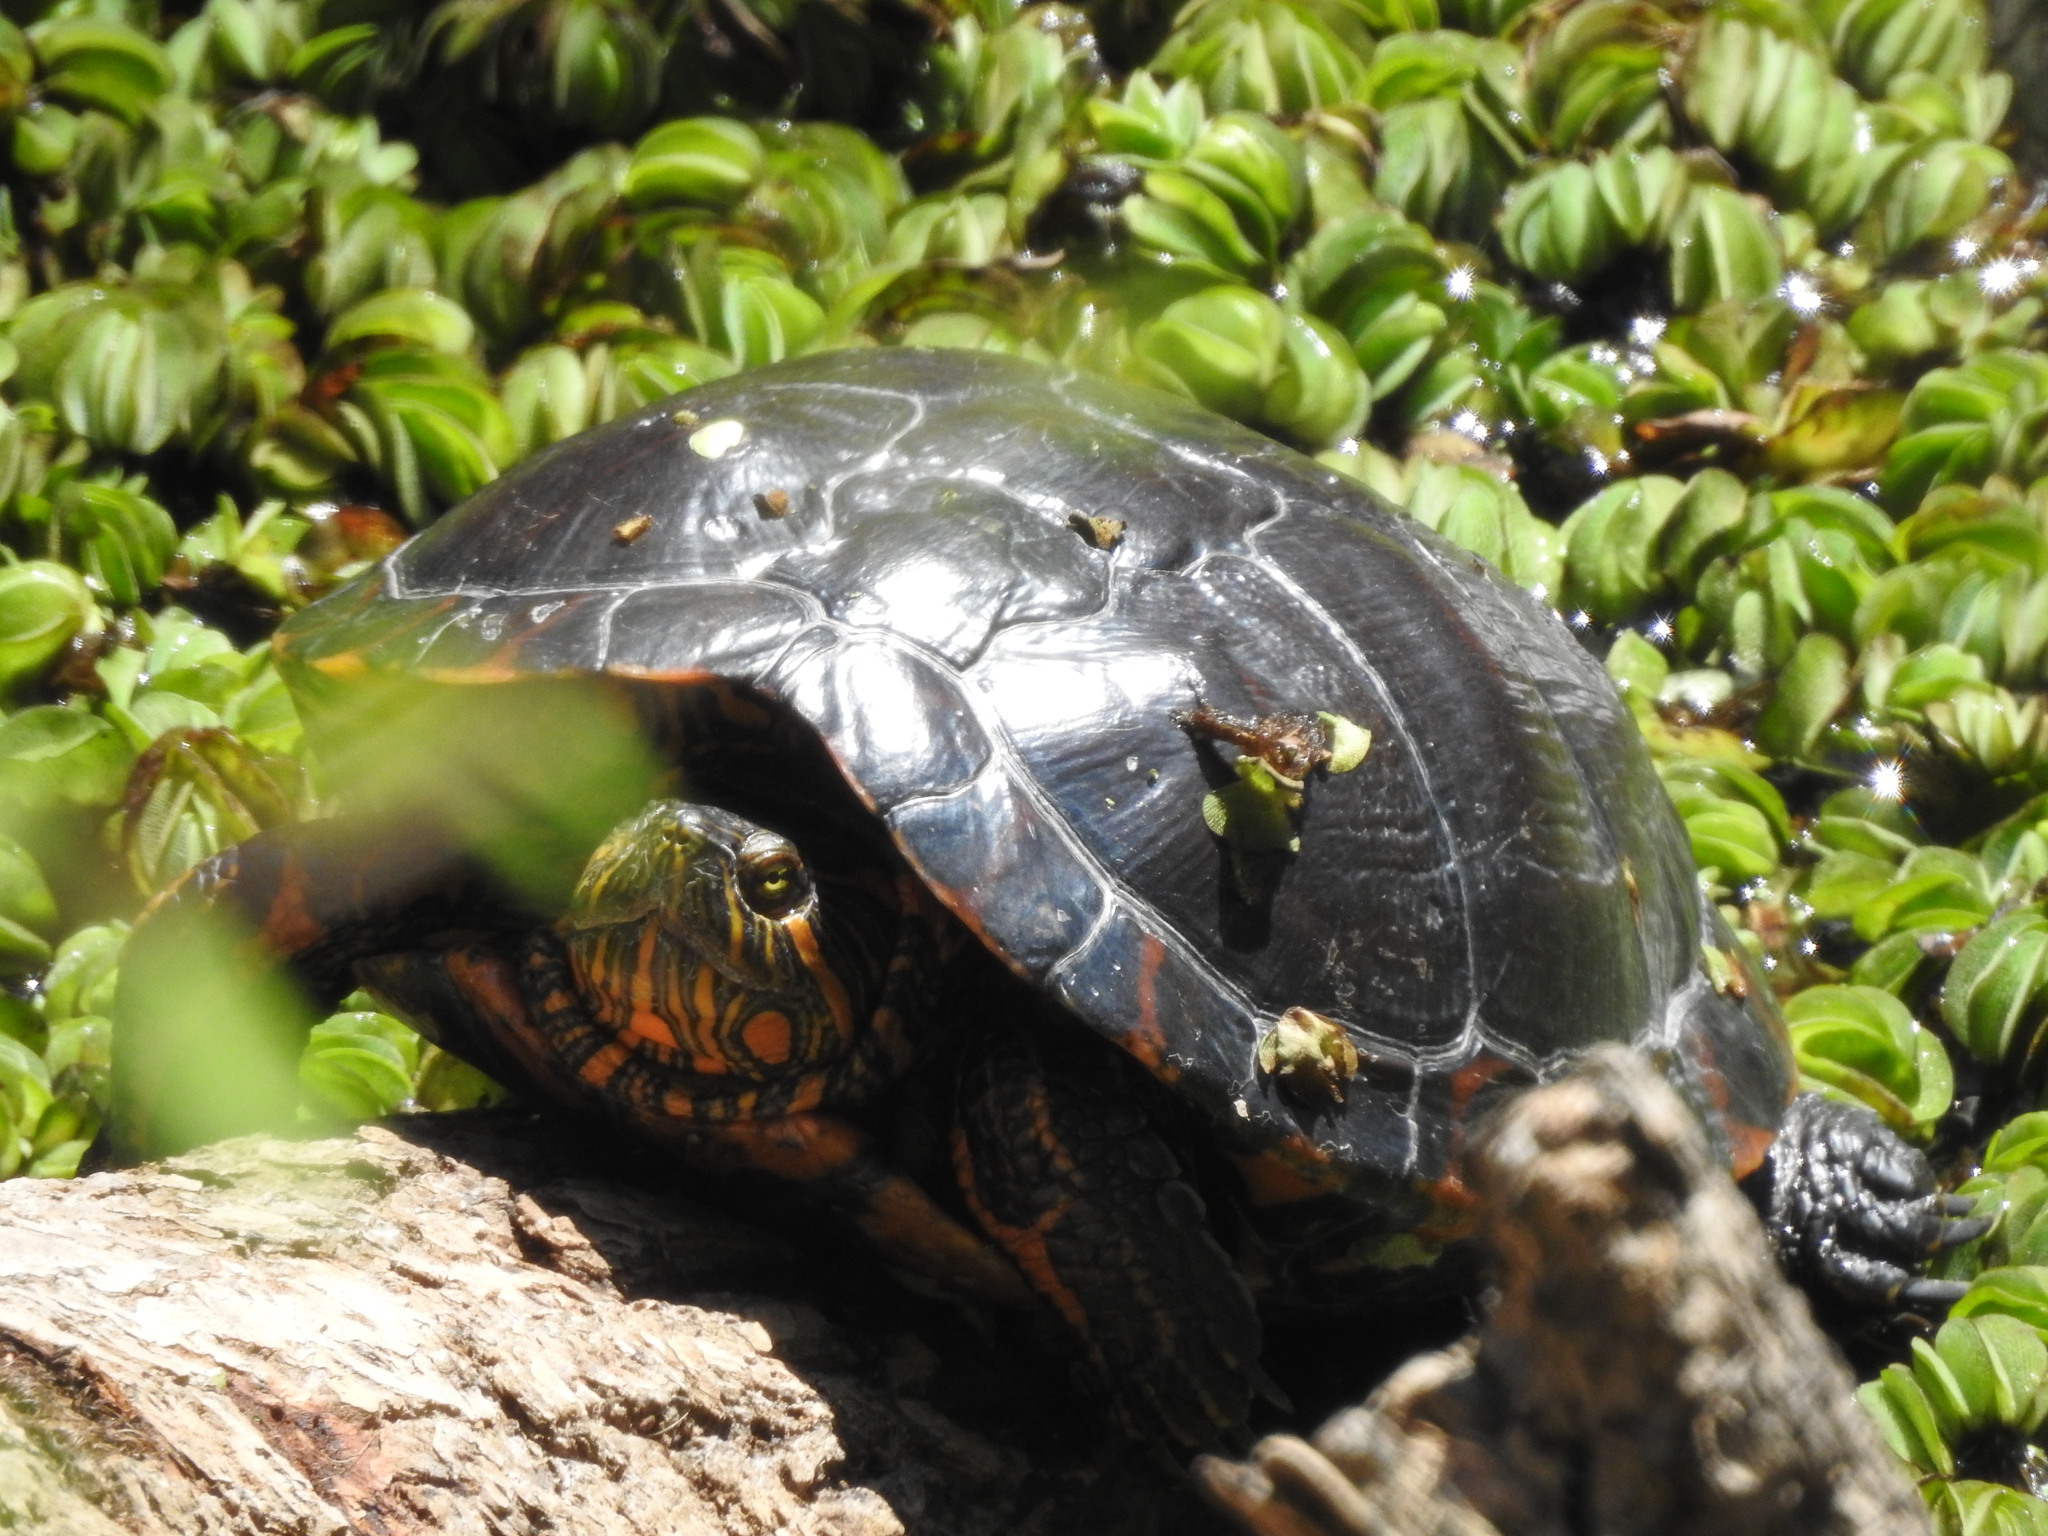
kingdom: Animalia
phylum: Chordata
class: Testudines
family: Emydidae
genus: Trachemys
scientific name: Trachemys dorbigni
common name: Black-bellied slider
